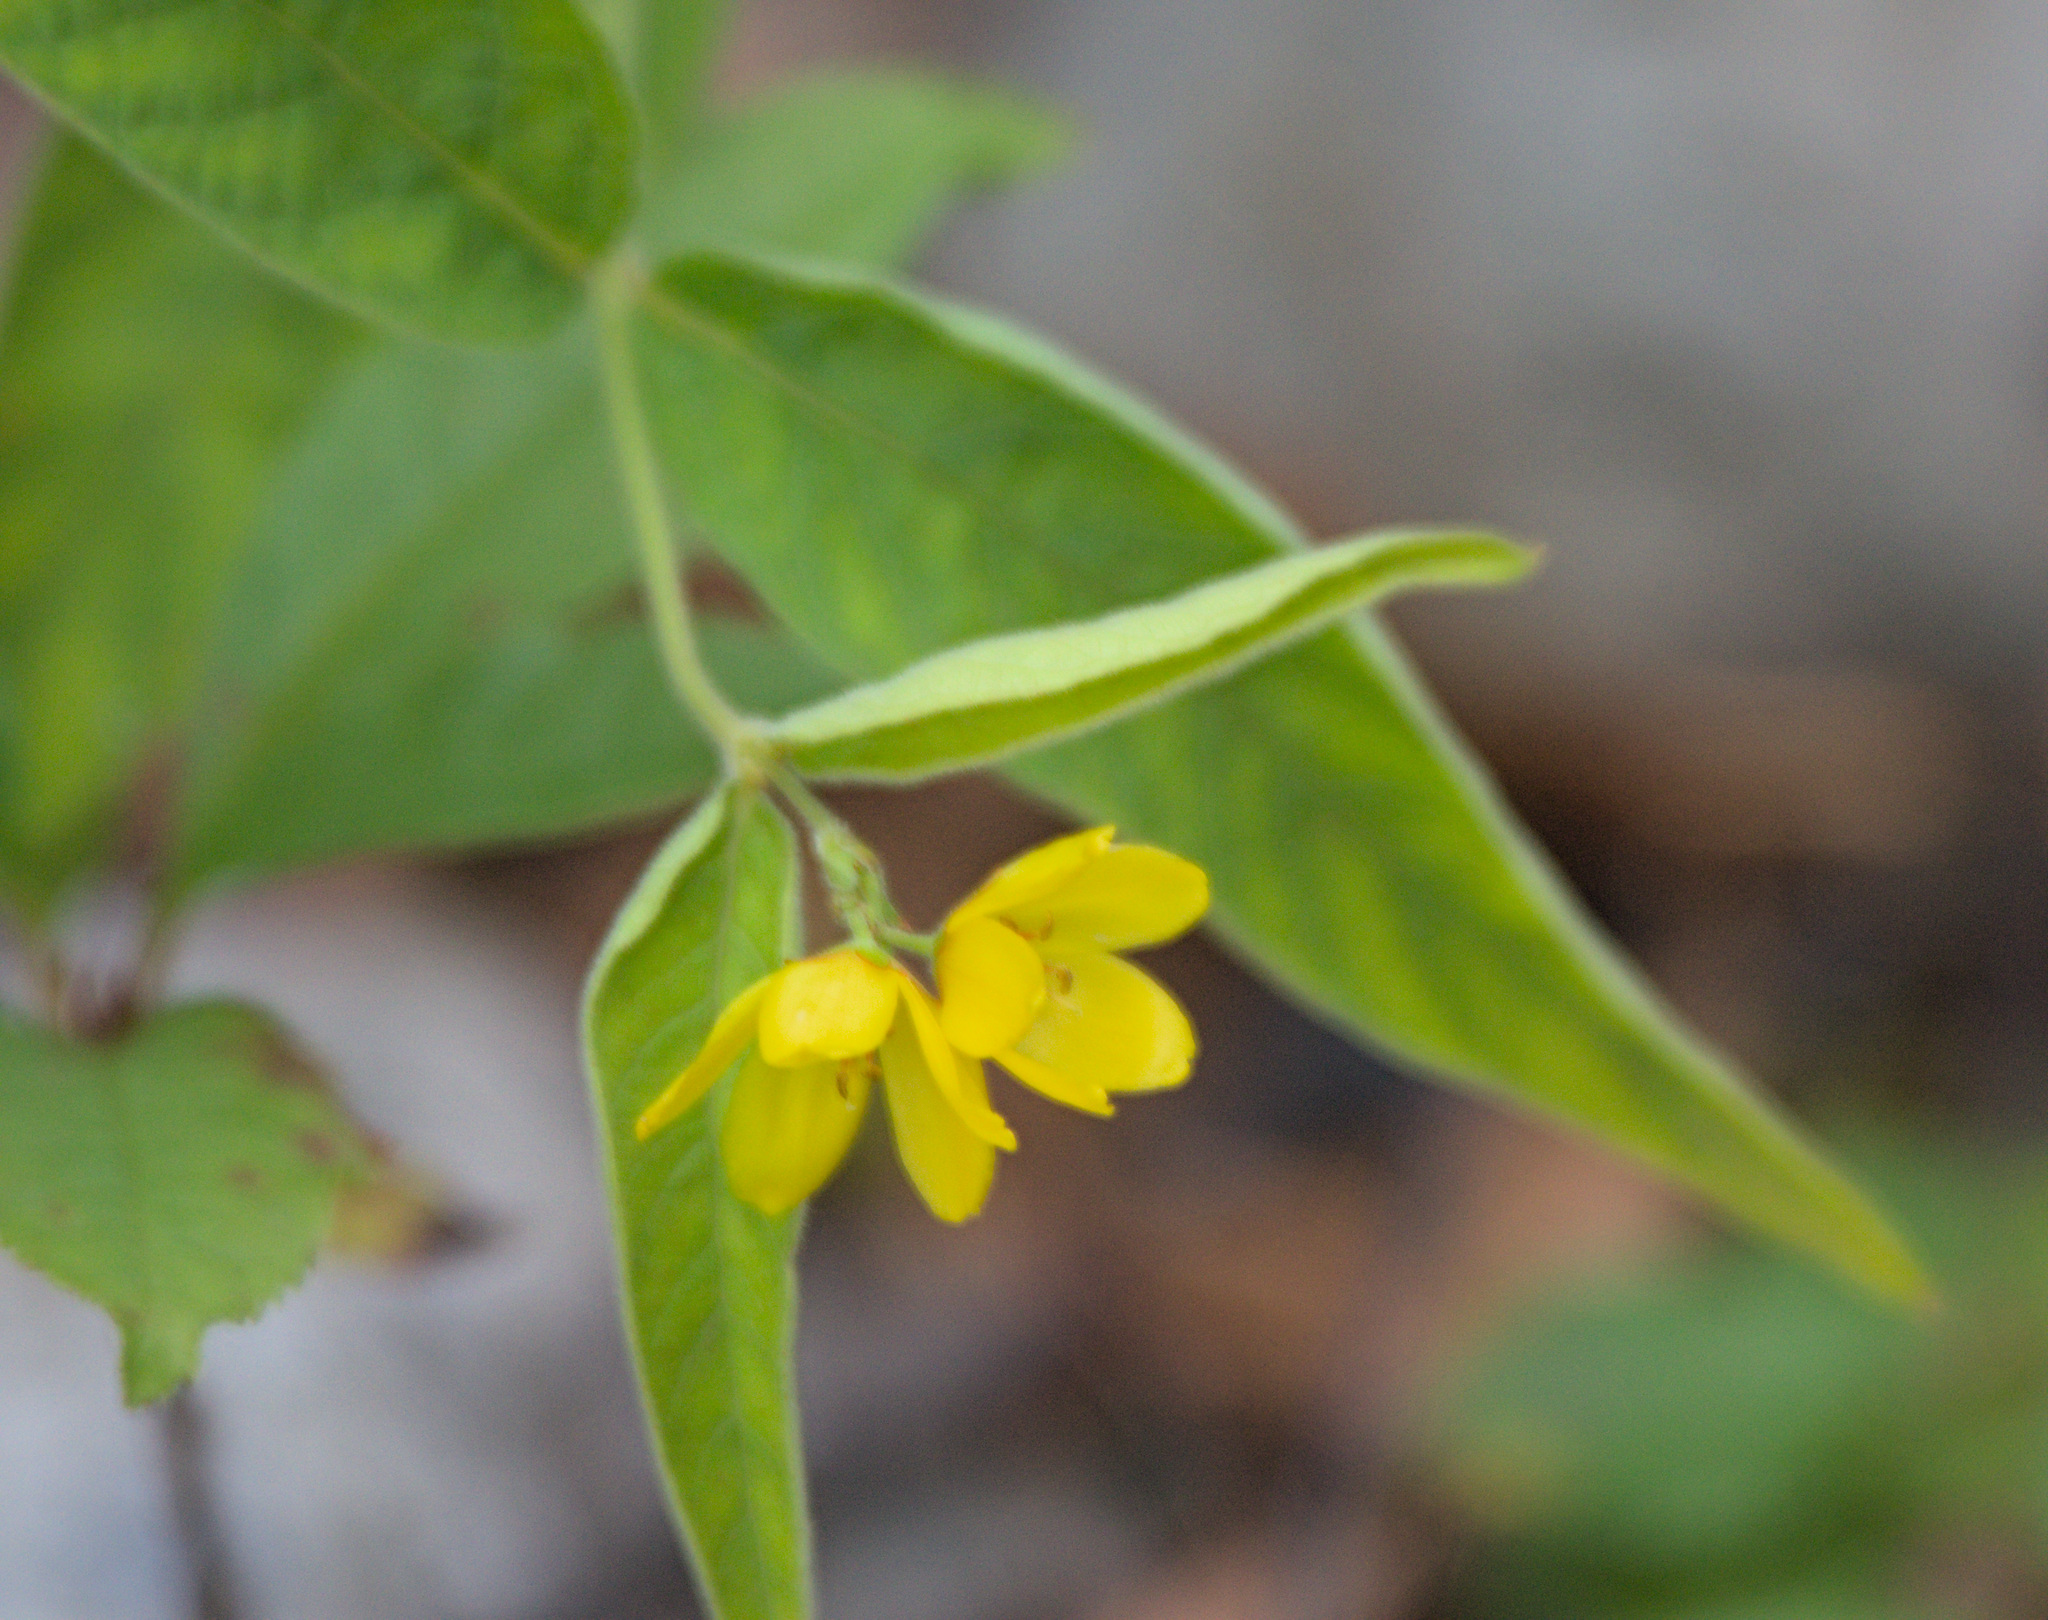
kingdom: Plantae
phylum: Tracheophyta
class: Magnoliopsida
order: Ericales
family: Primulaceae
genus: Lysimachia
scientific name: Lysimachia vulgaris
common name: Yellow loosestrife
